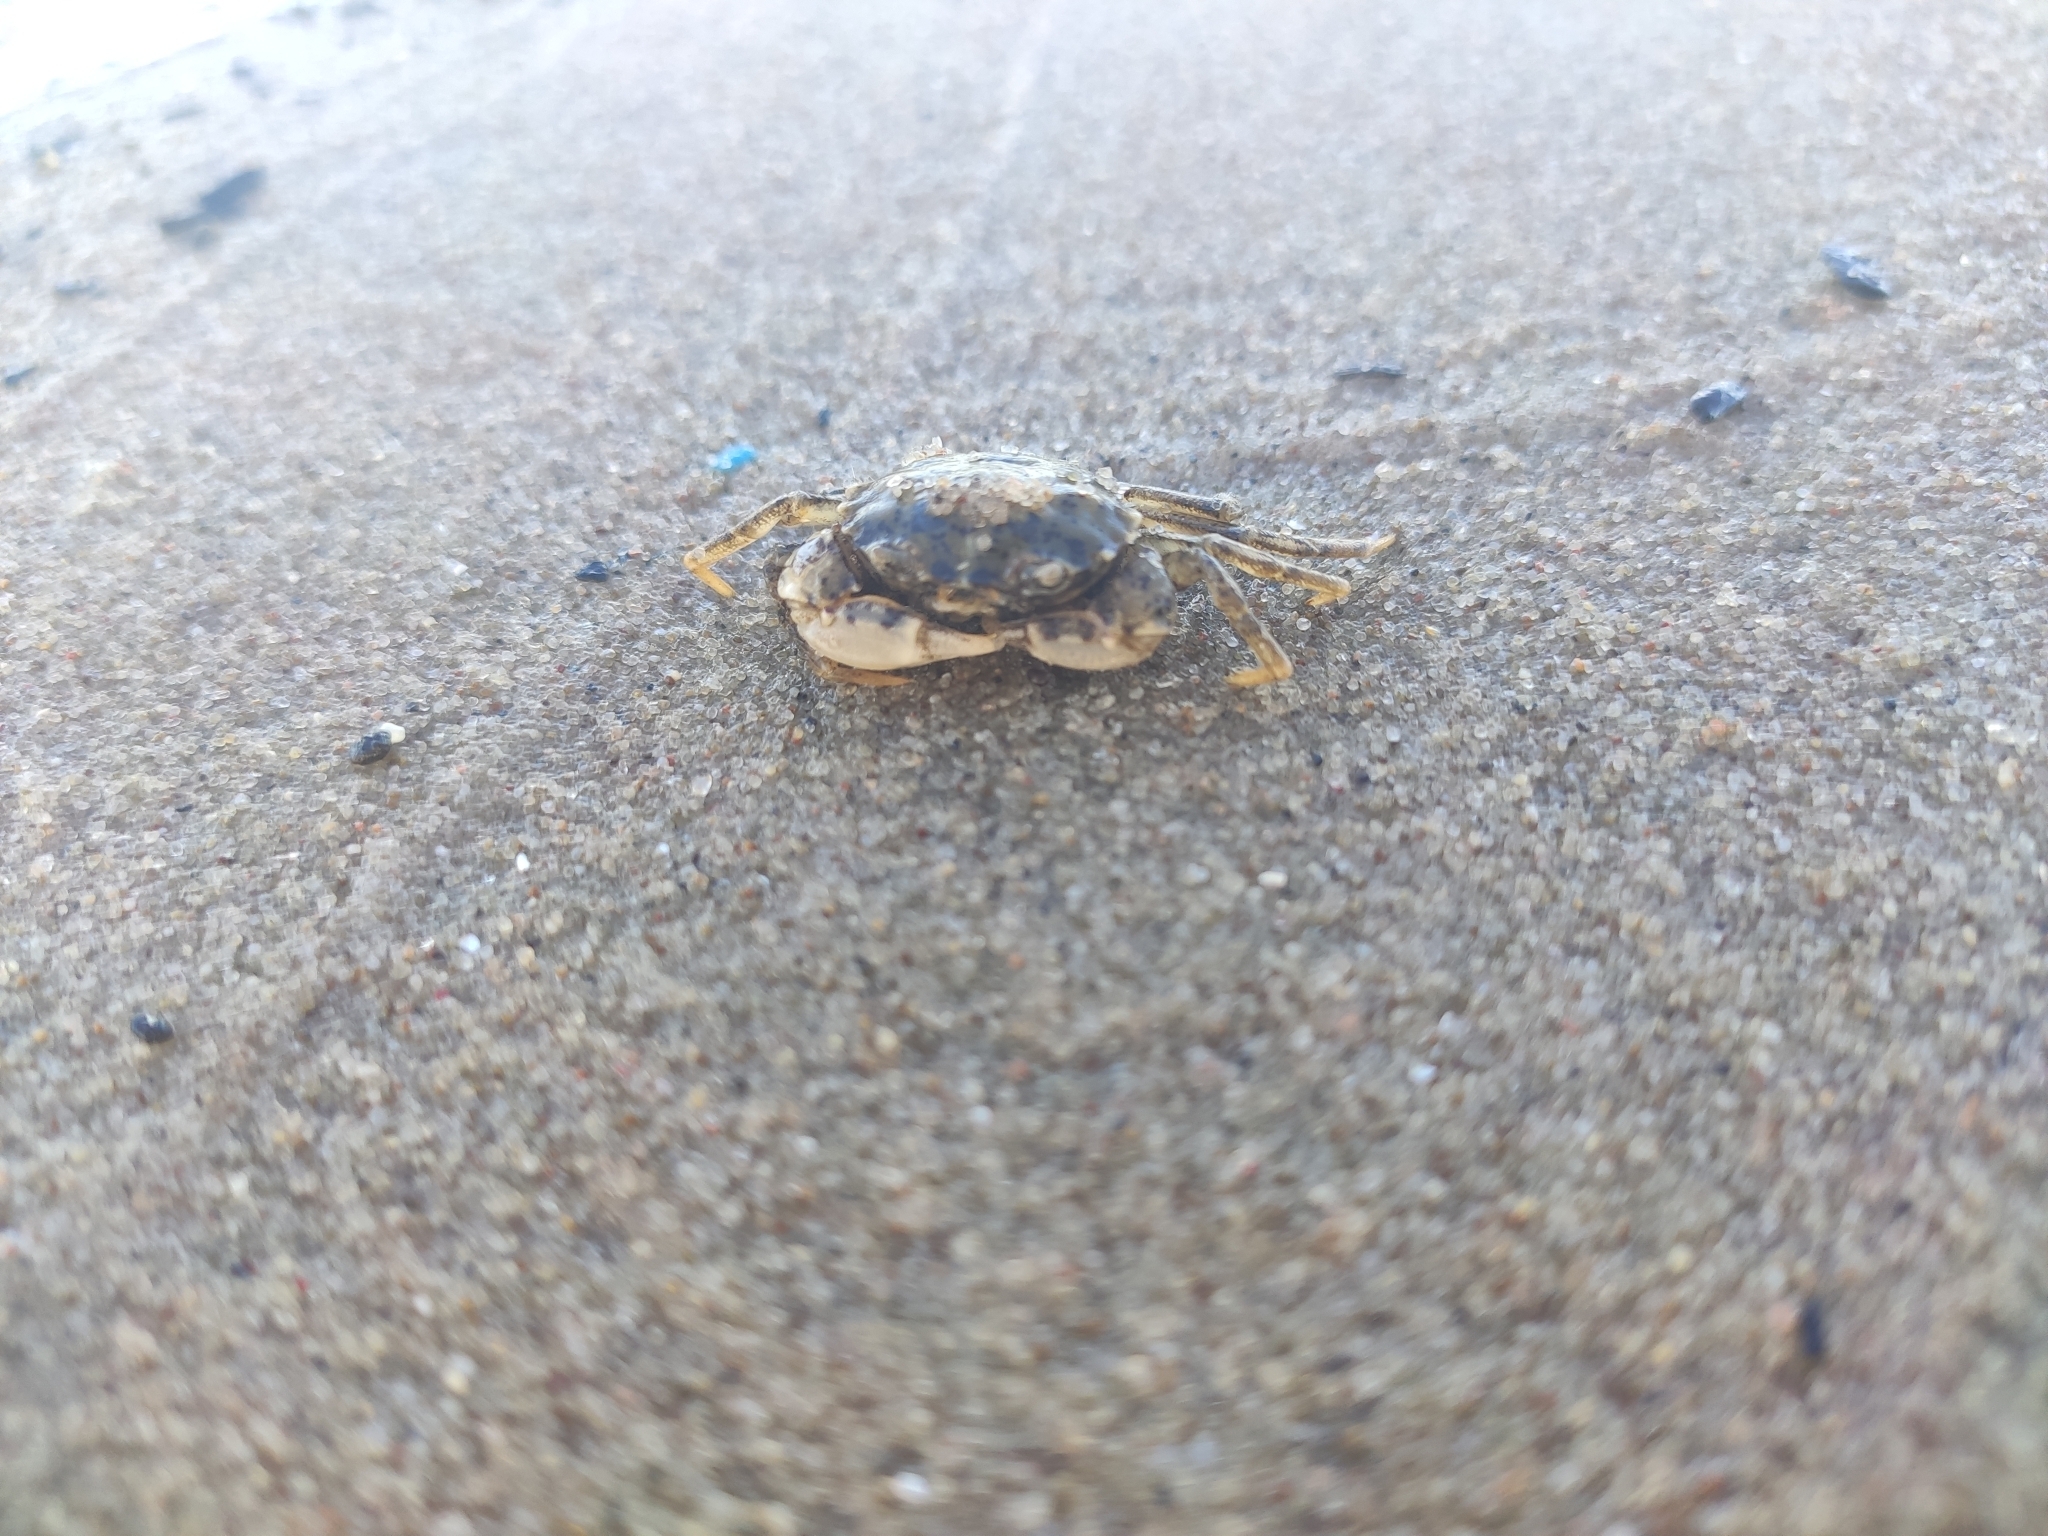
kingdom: Animalia
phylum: Arthropoda
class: Malacostraca
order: Decapoda
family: Panopeidae
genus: Rhithropanopeus
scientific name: Rhithropanopeus harrisii
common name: Dwarf crab
